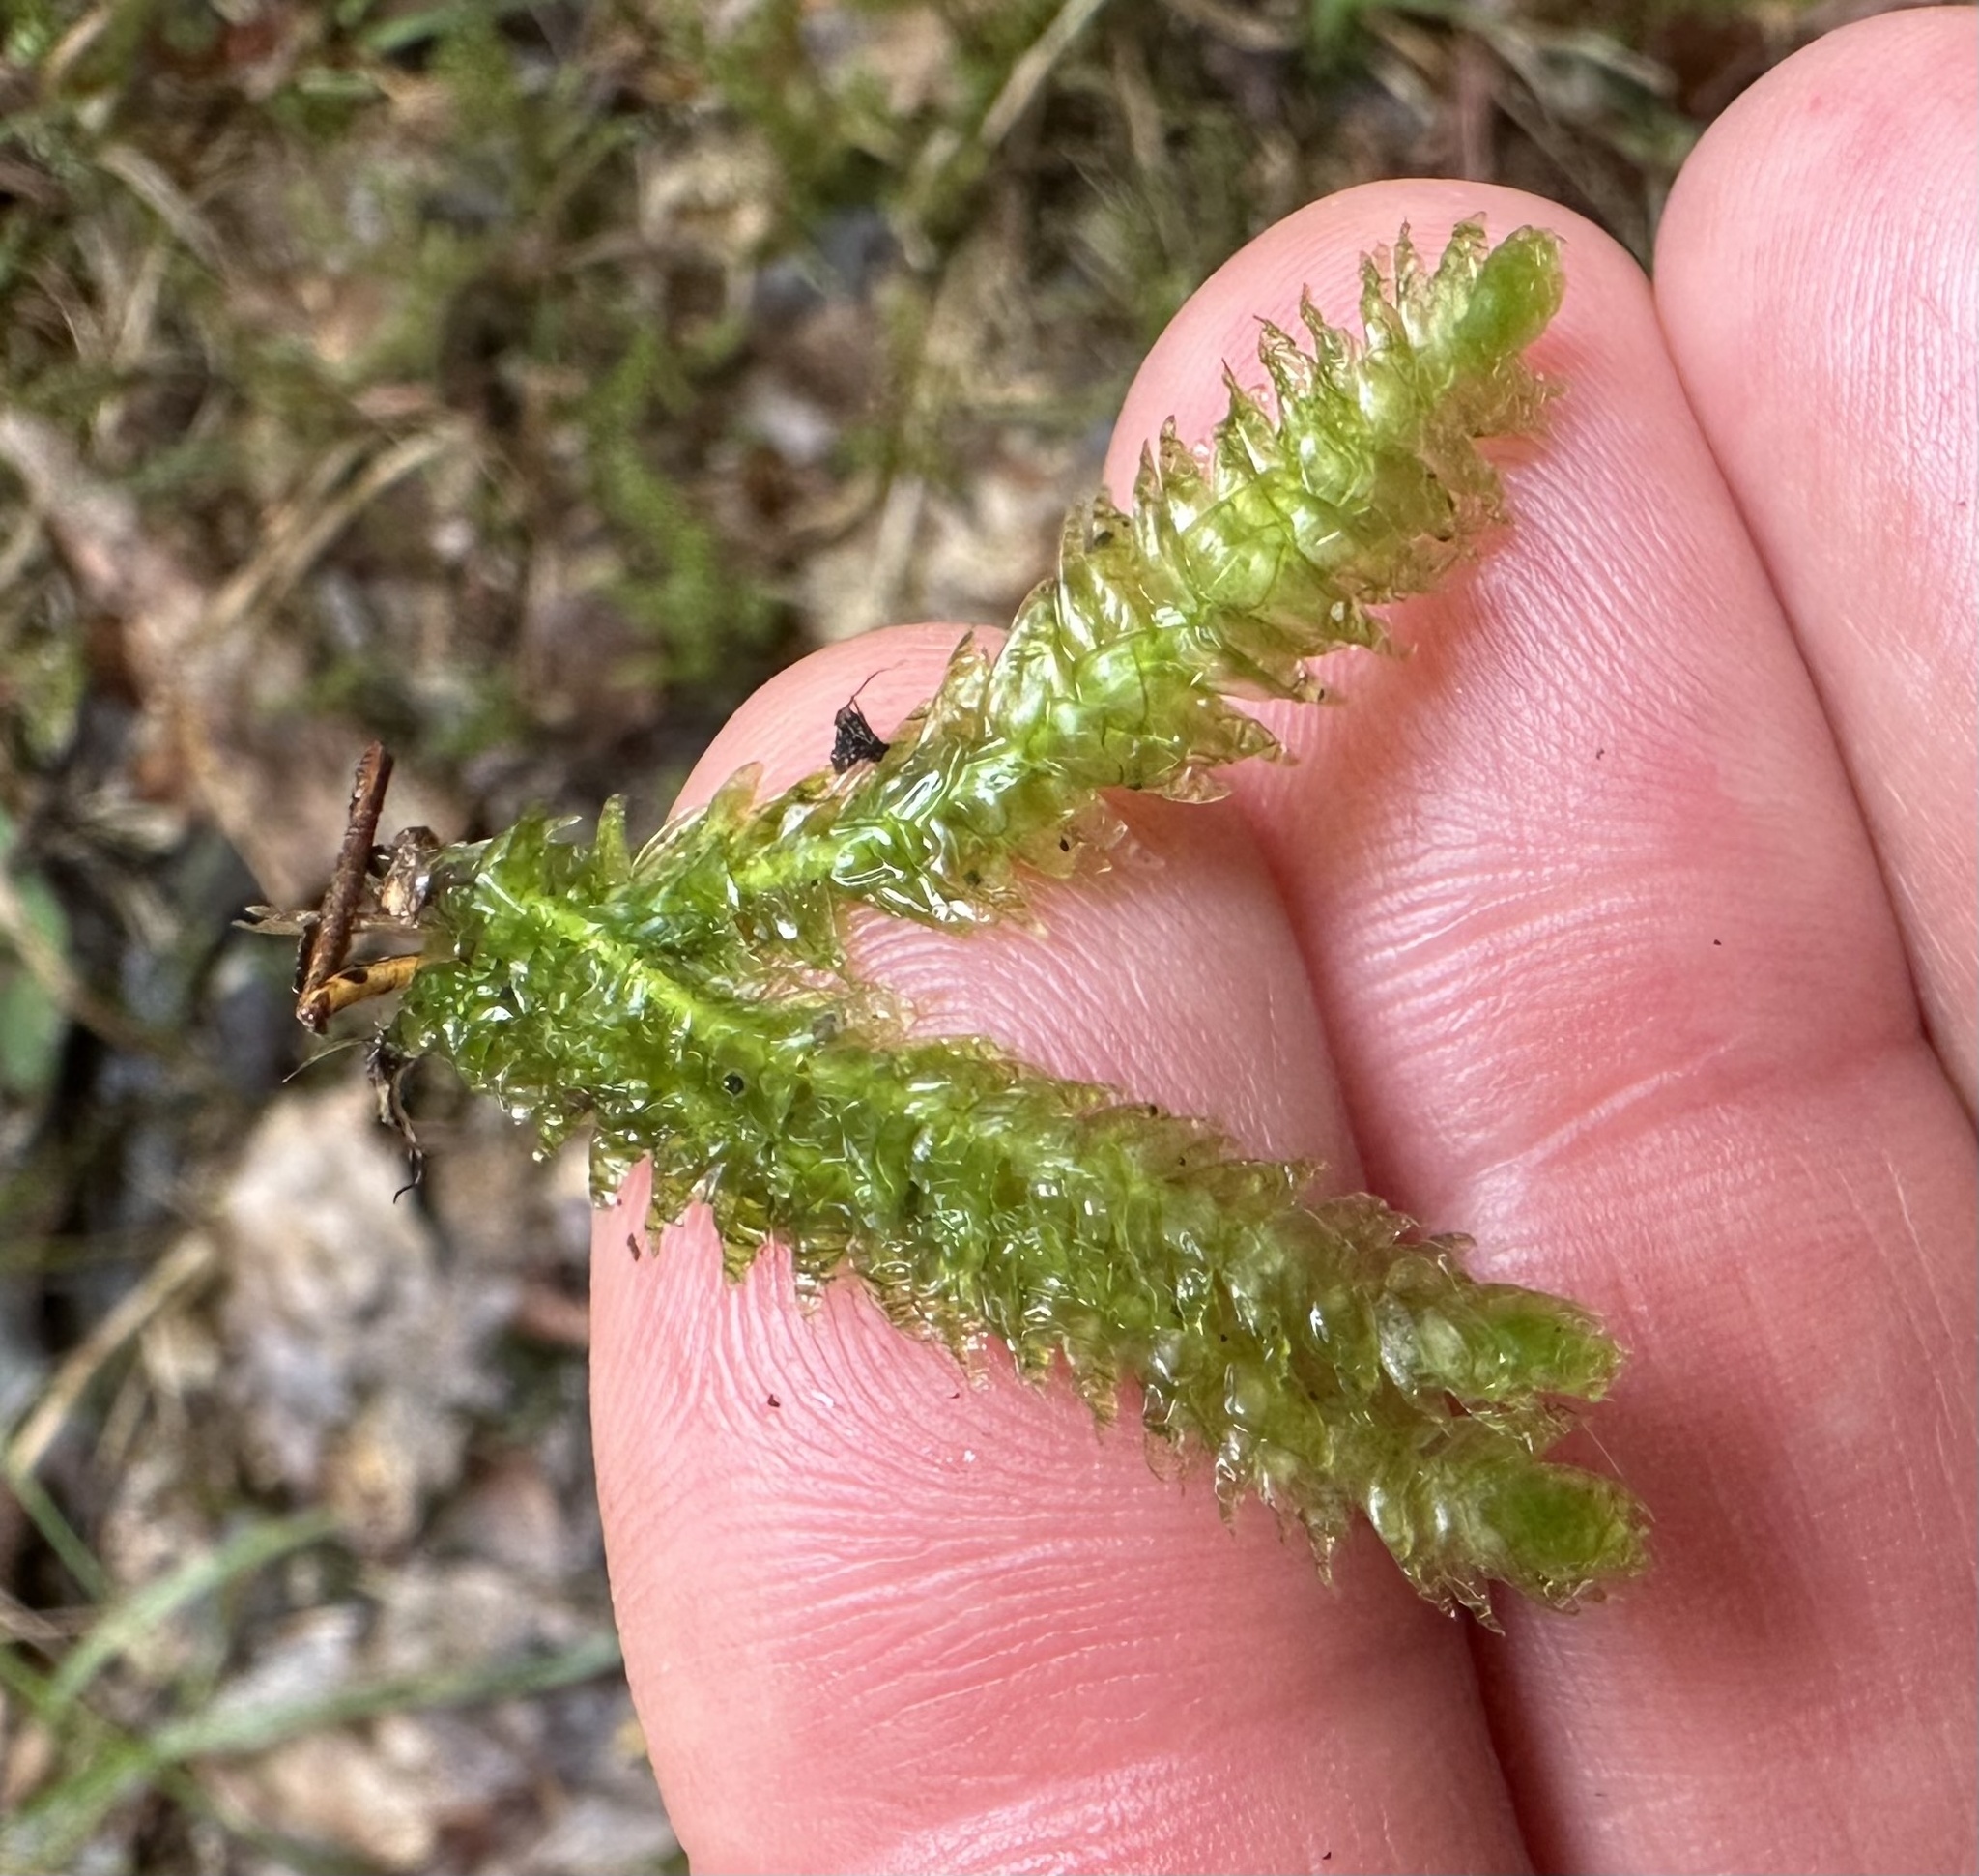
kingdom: Plantae
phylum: Bryophyta
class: Bryopsida
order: Hypnales
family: Plagiotheciaceae
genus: Plagiothecium
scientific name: Plagiothecium undulatum
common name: Waved silk-moss
